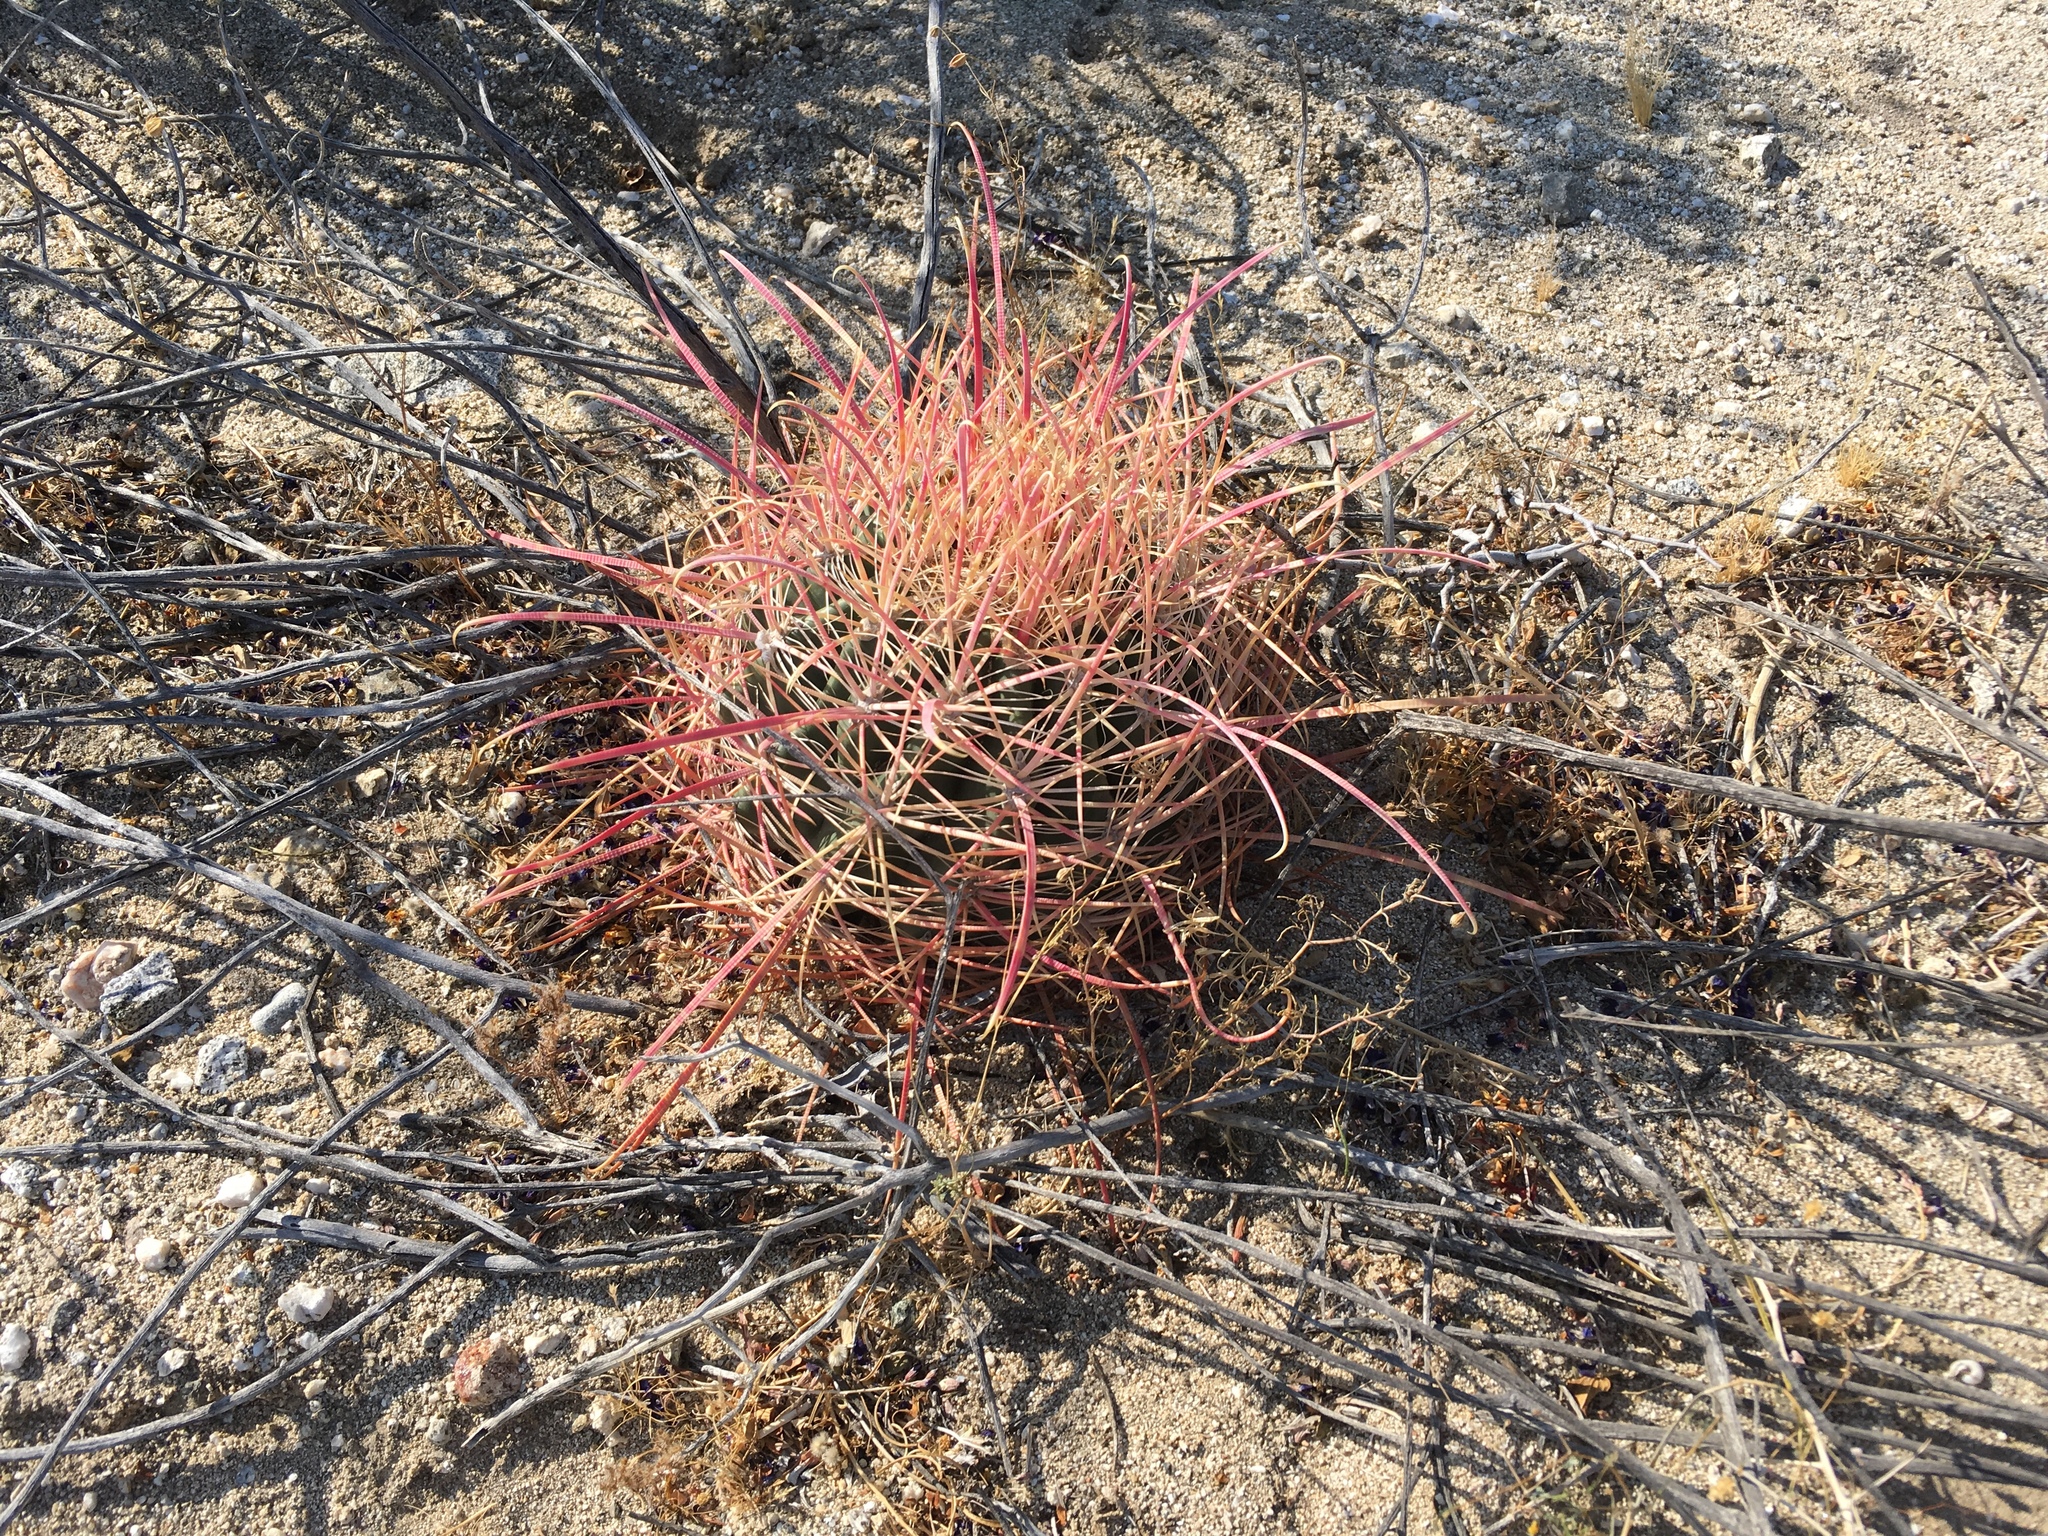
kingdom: Plantae
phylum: Tracheophyta
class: Magnoliopsida
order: Caryophyllales
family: Cactaceae
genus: Ferocactus
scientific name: Ferocactus cylindraceus
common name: California barrel cactus
